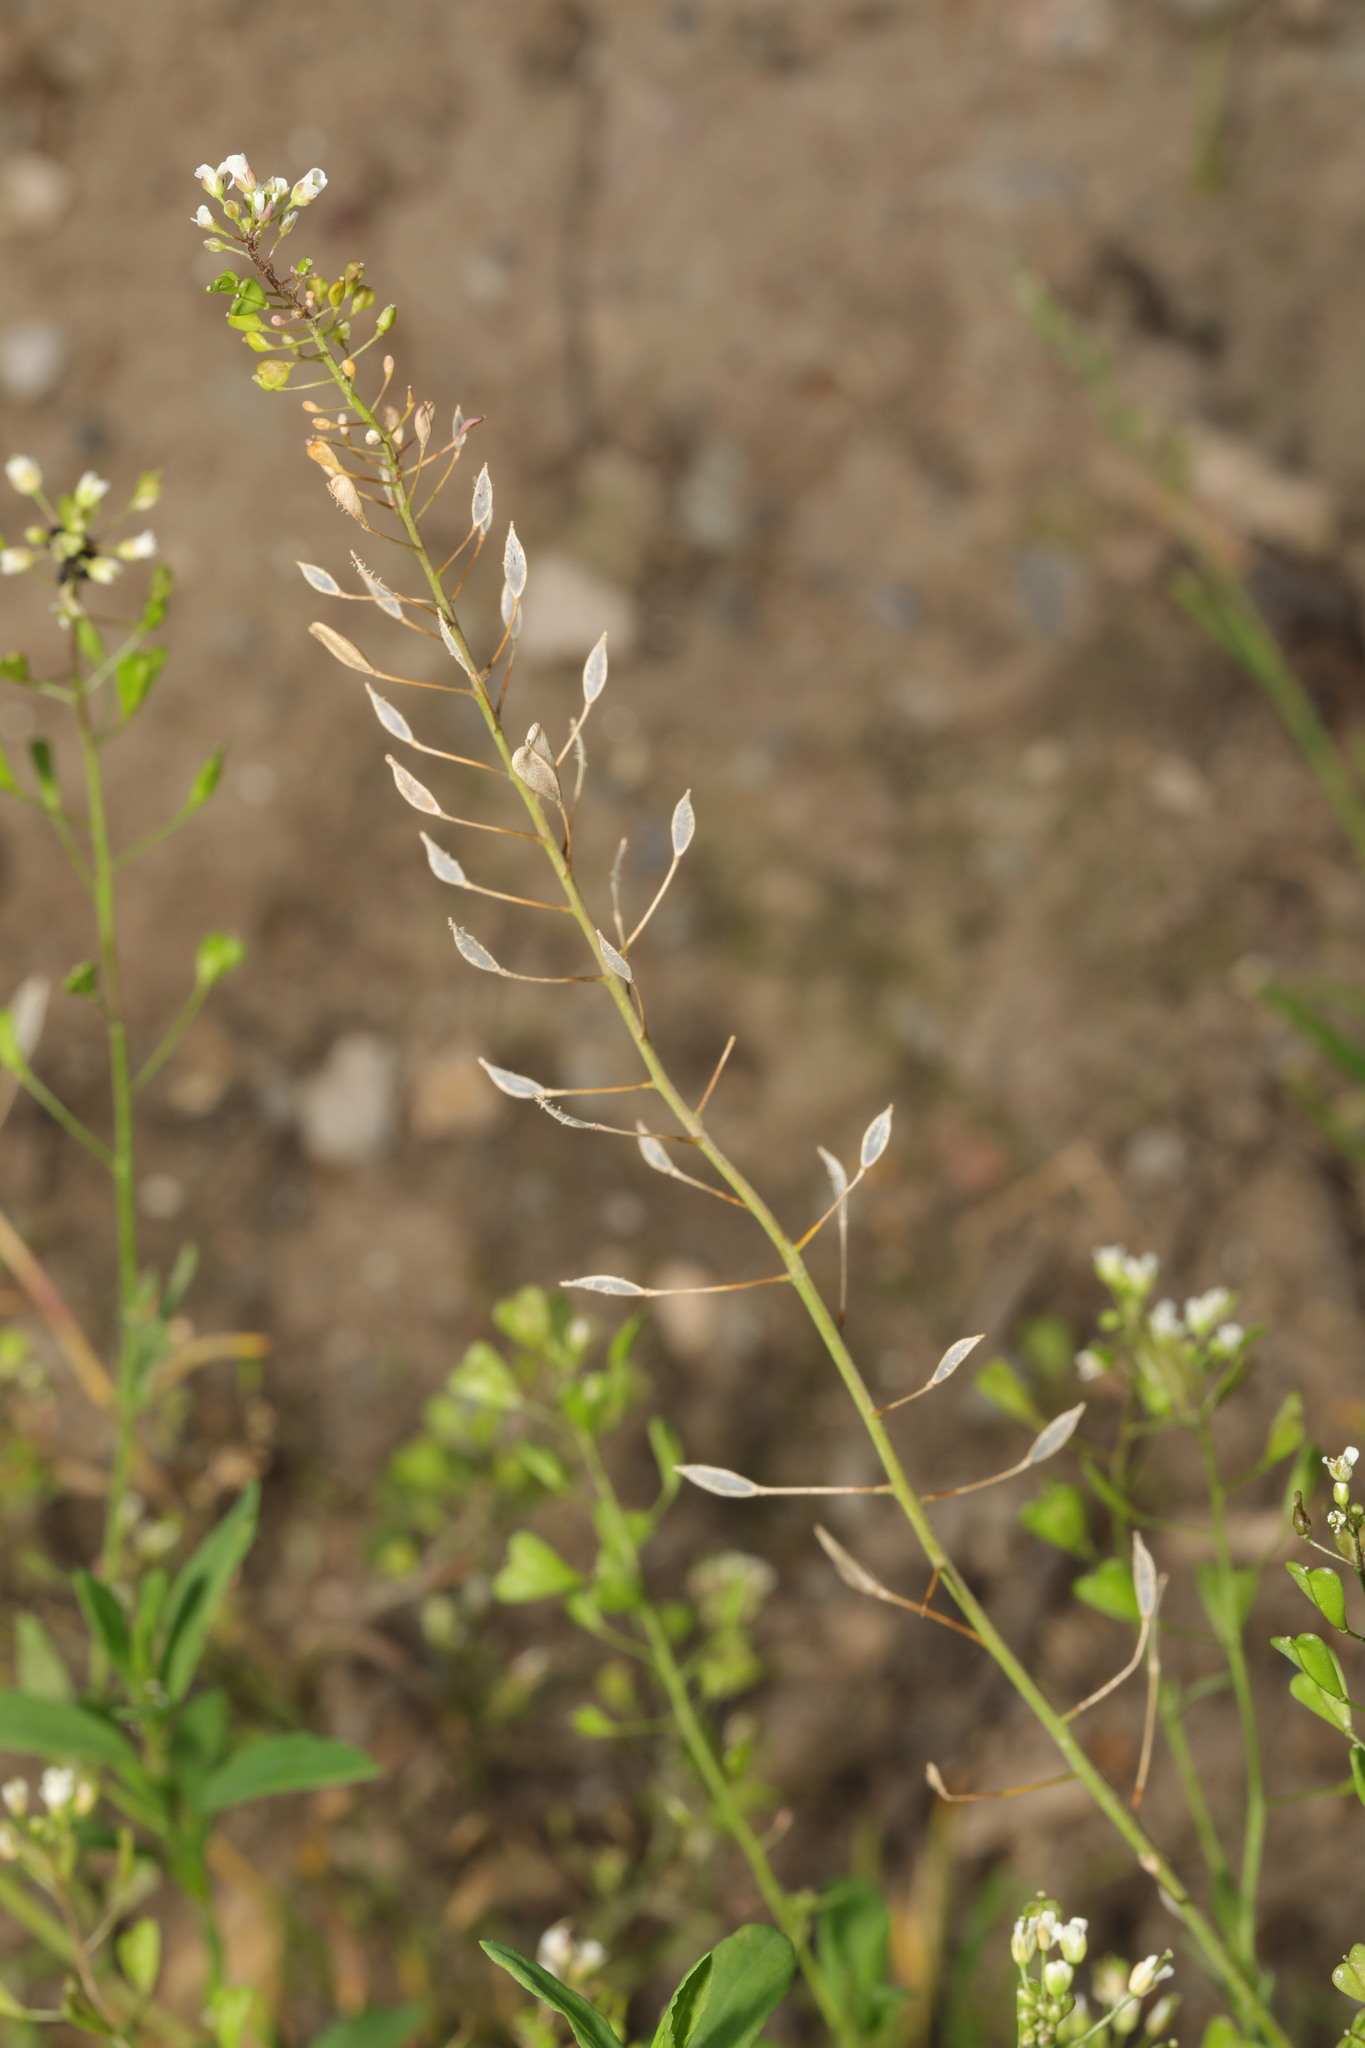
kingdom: Plantae
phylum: Tracheophyta
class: Magnoliopsida
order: Brassicales
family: Brassicaceae
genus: Capsella
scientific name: Capsella bursa-pastoris
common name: Shepherd's purse
